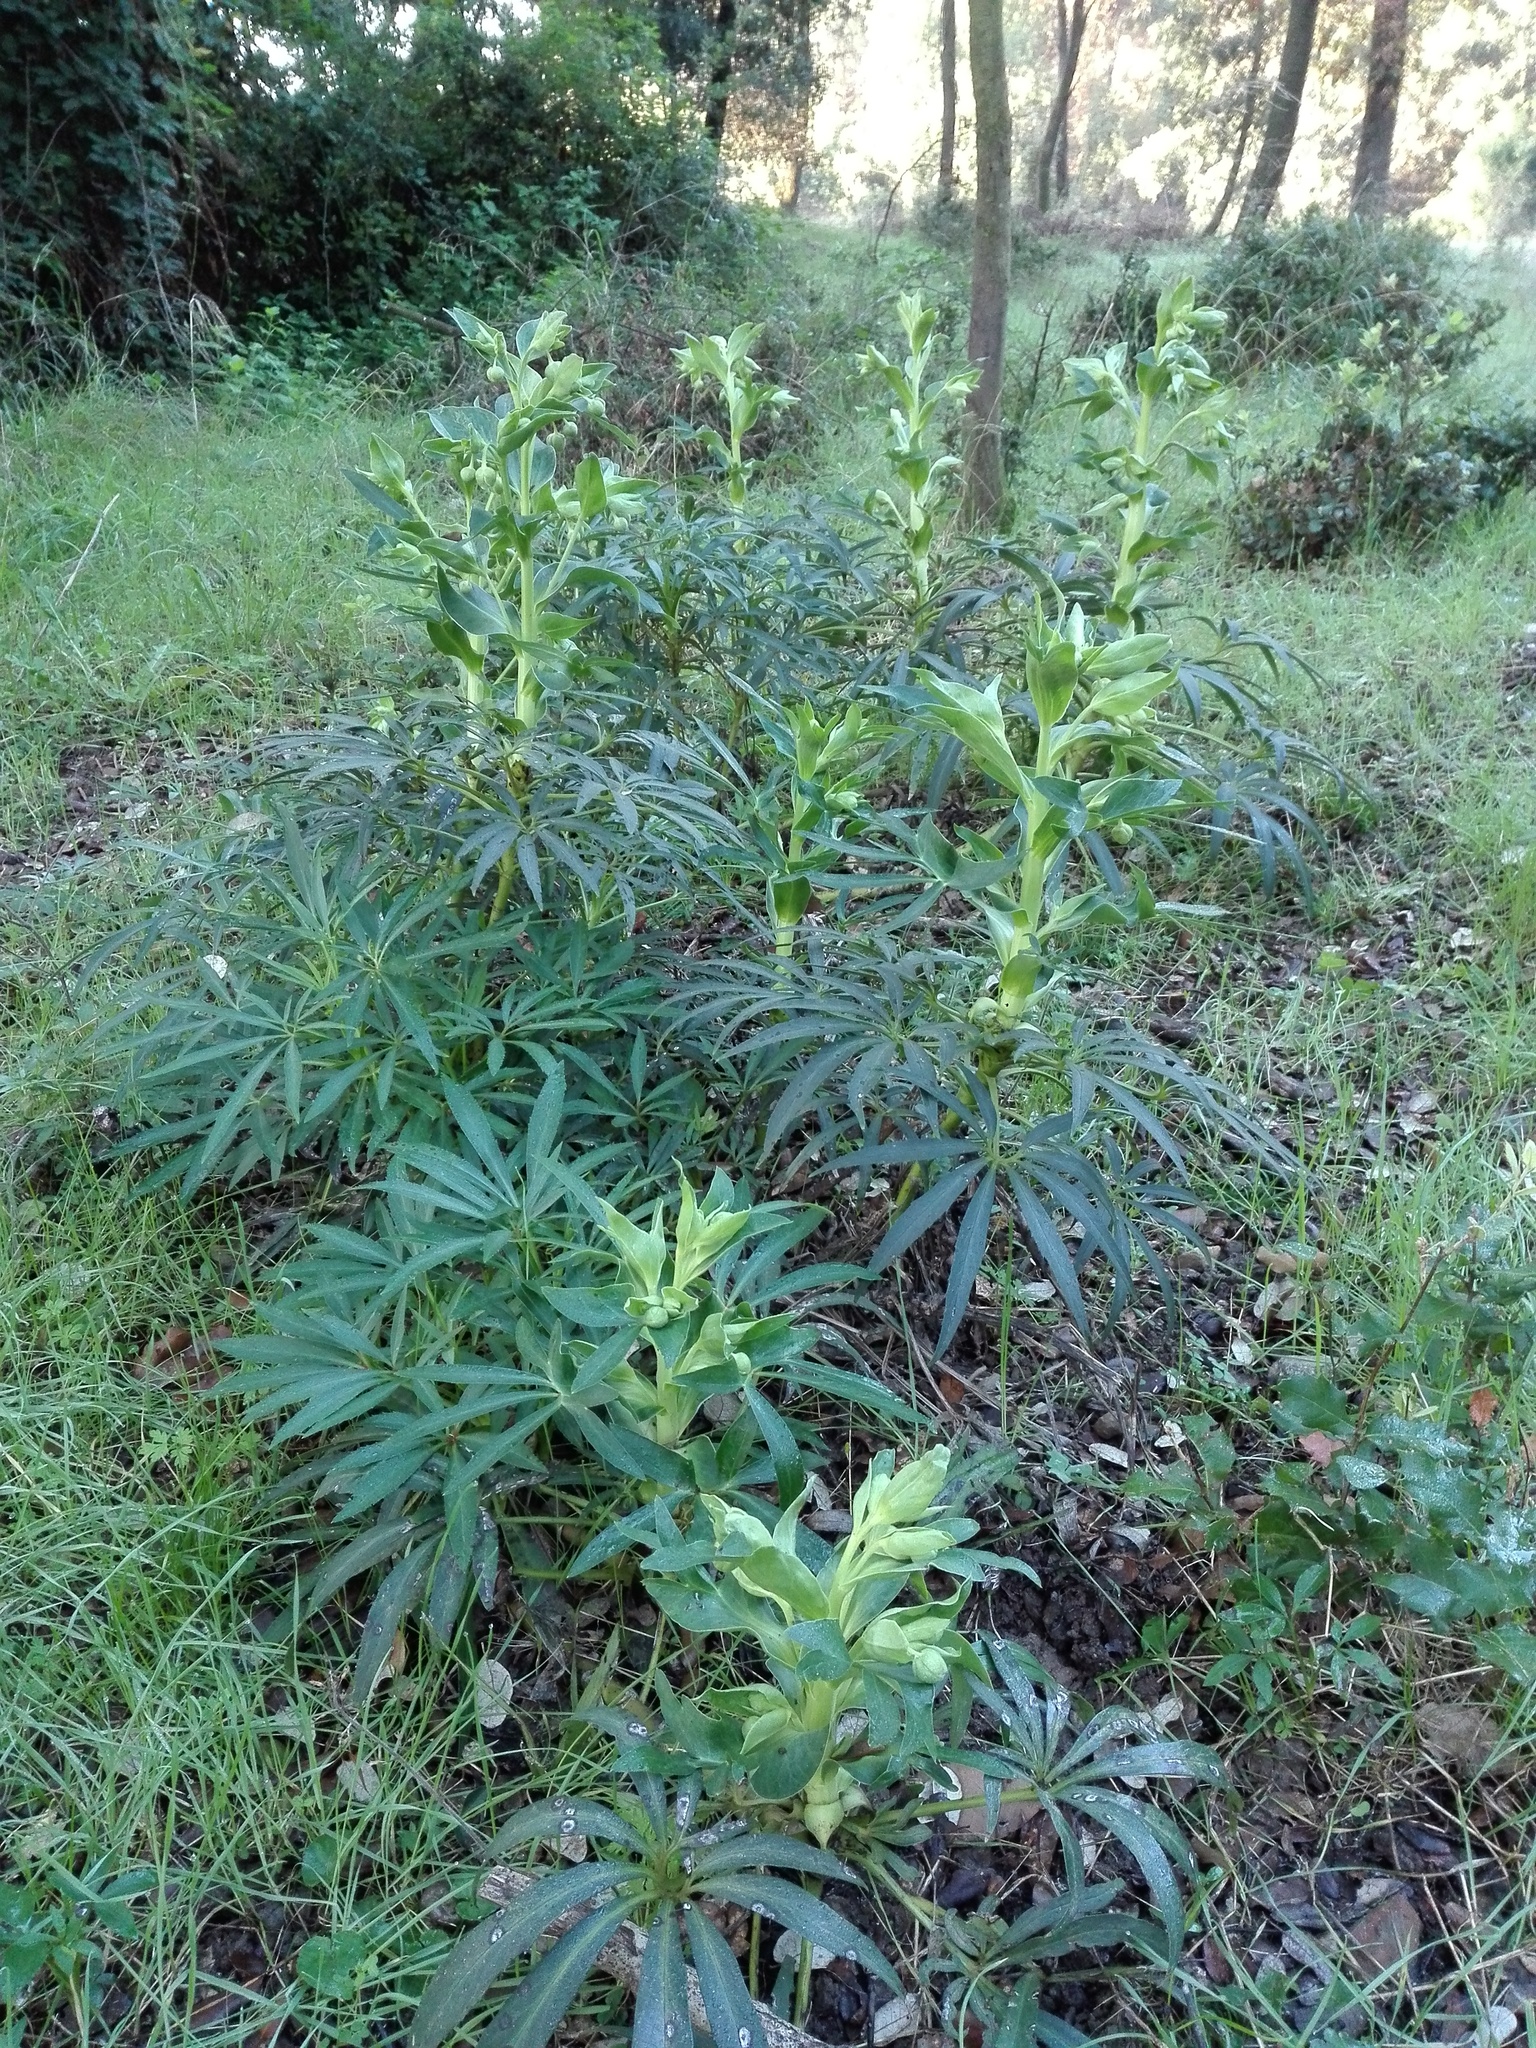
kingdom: Plantae
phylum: Tracheophyta
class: Magnoliopsida
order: Ranunculales
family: Ranunculaceae
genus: Helleborus
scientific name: Helleborus foetidus
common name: Stinking hellebore
